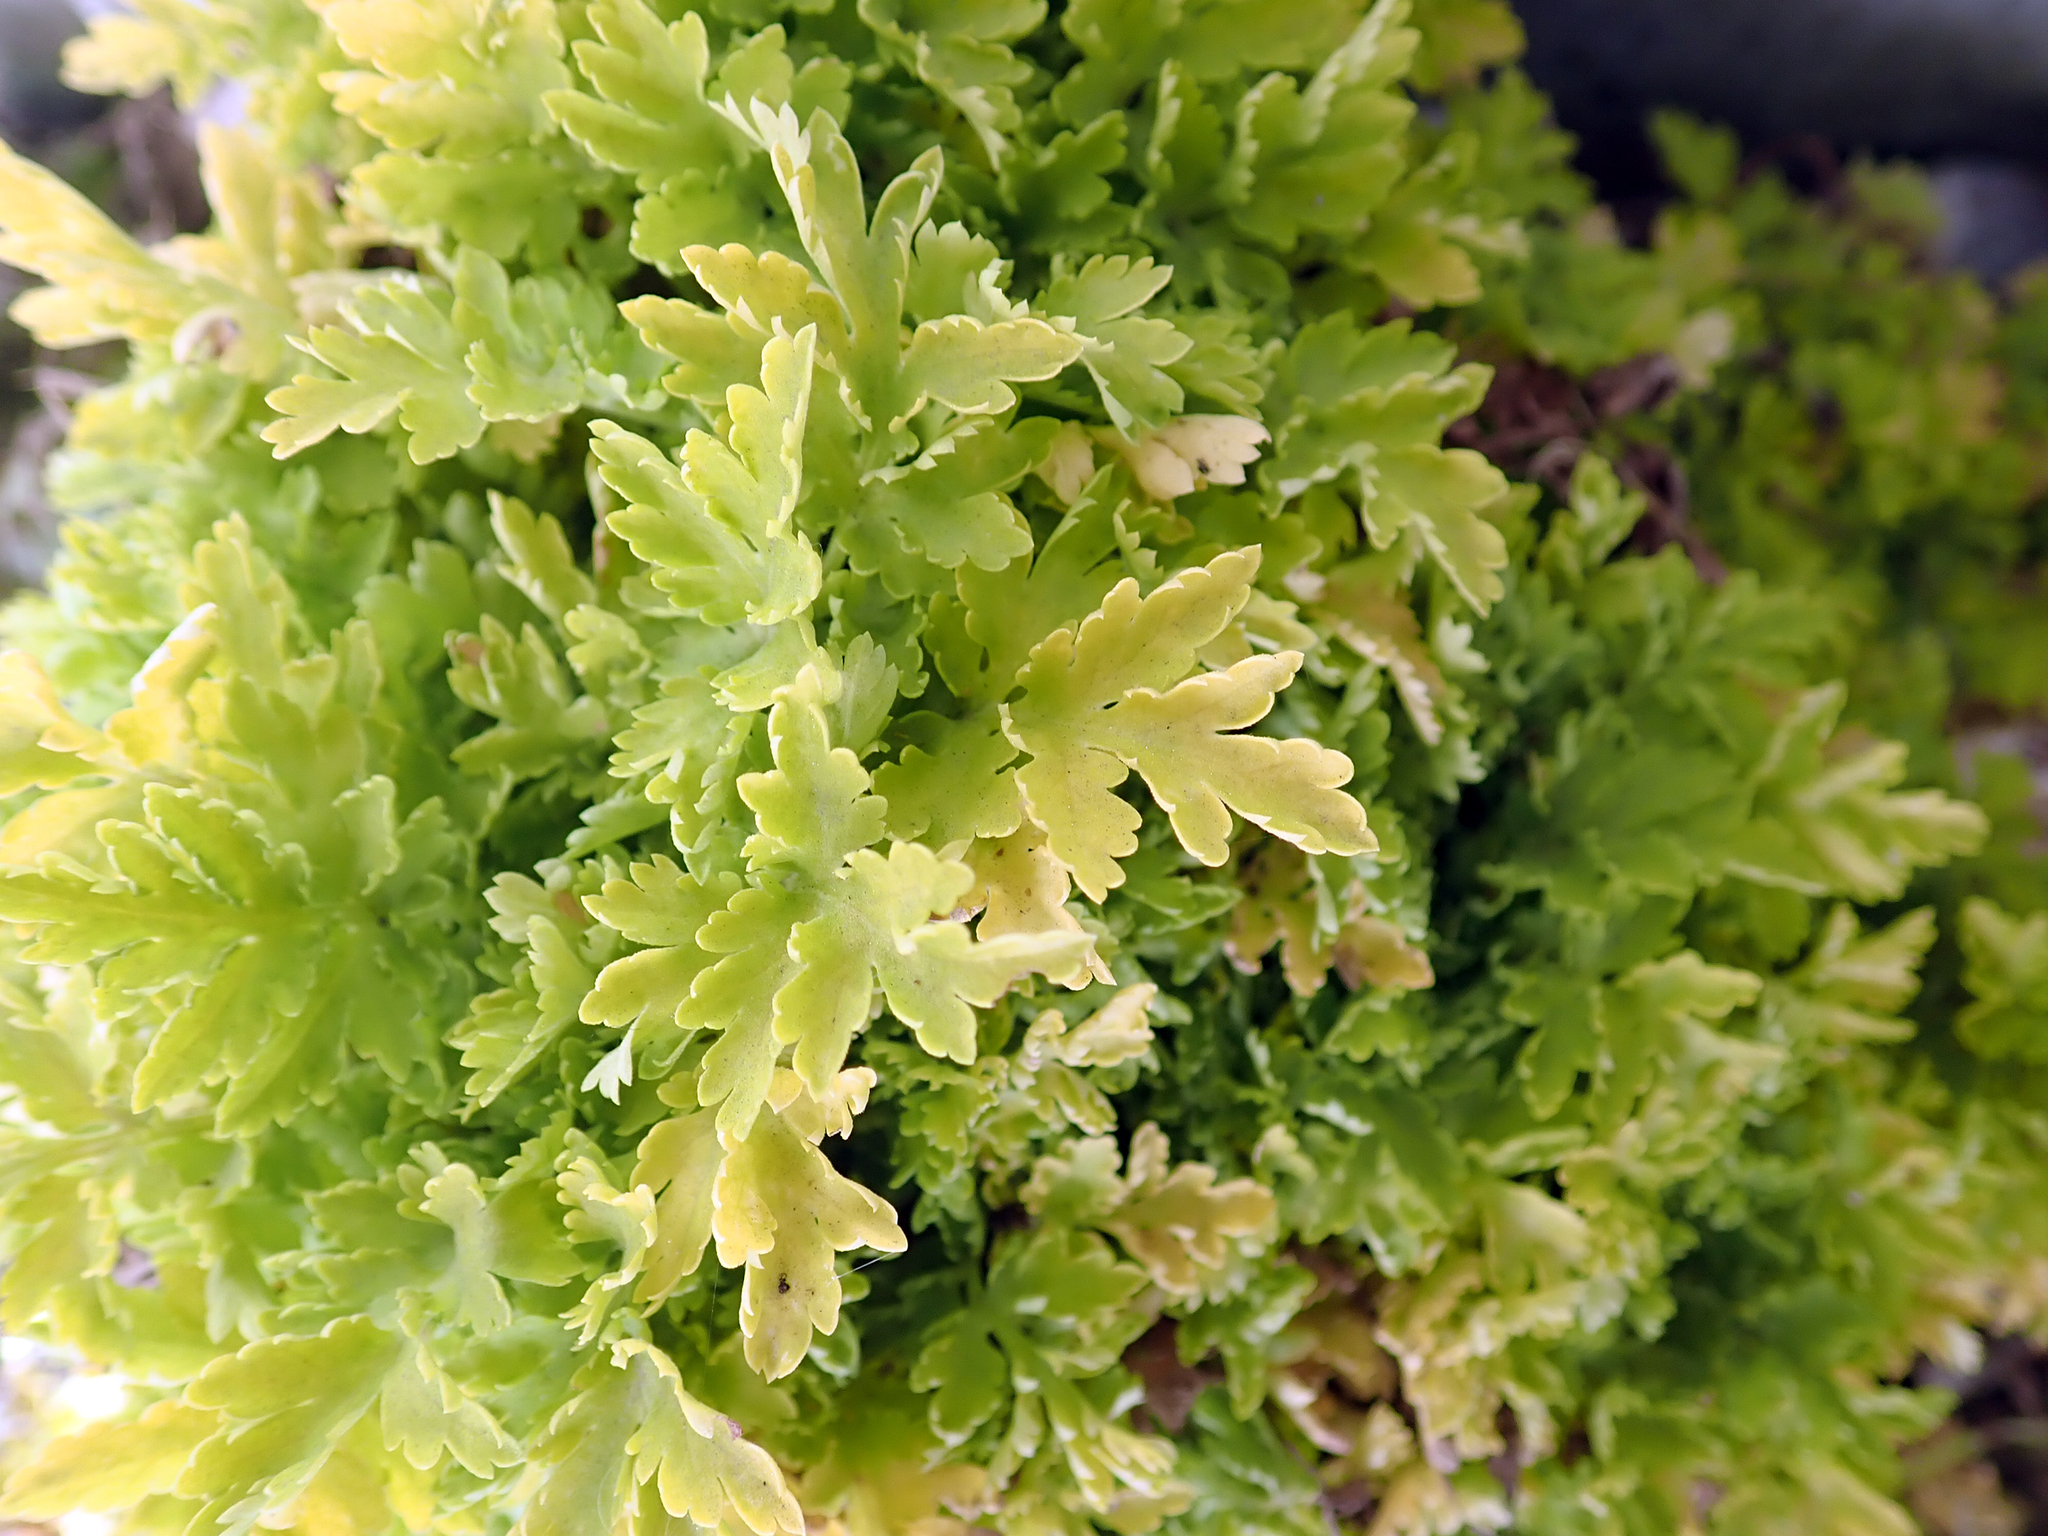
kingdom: Plantae
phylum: Tracheophyta
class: Magnoliopsida
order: Asterales
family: Asteraceae
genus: Tanacetum
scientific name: Tanacetum parthenium
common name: Feverfew
